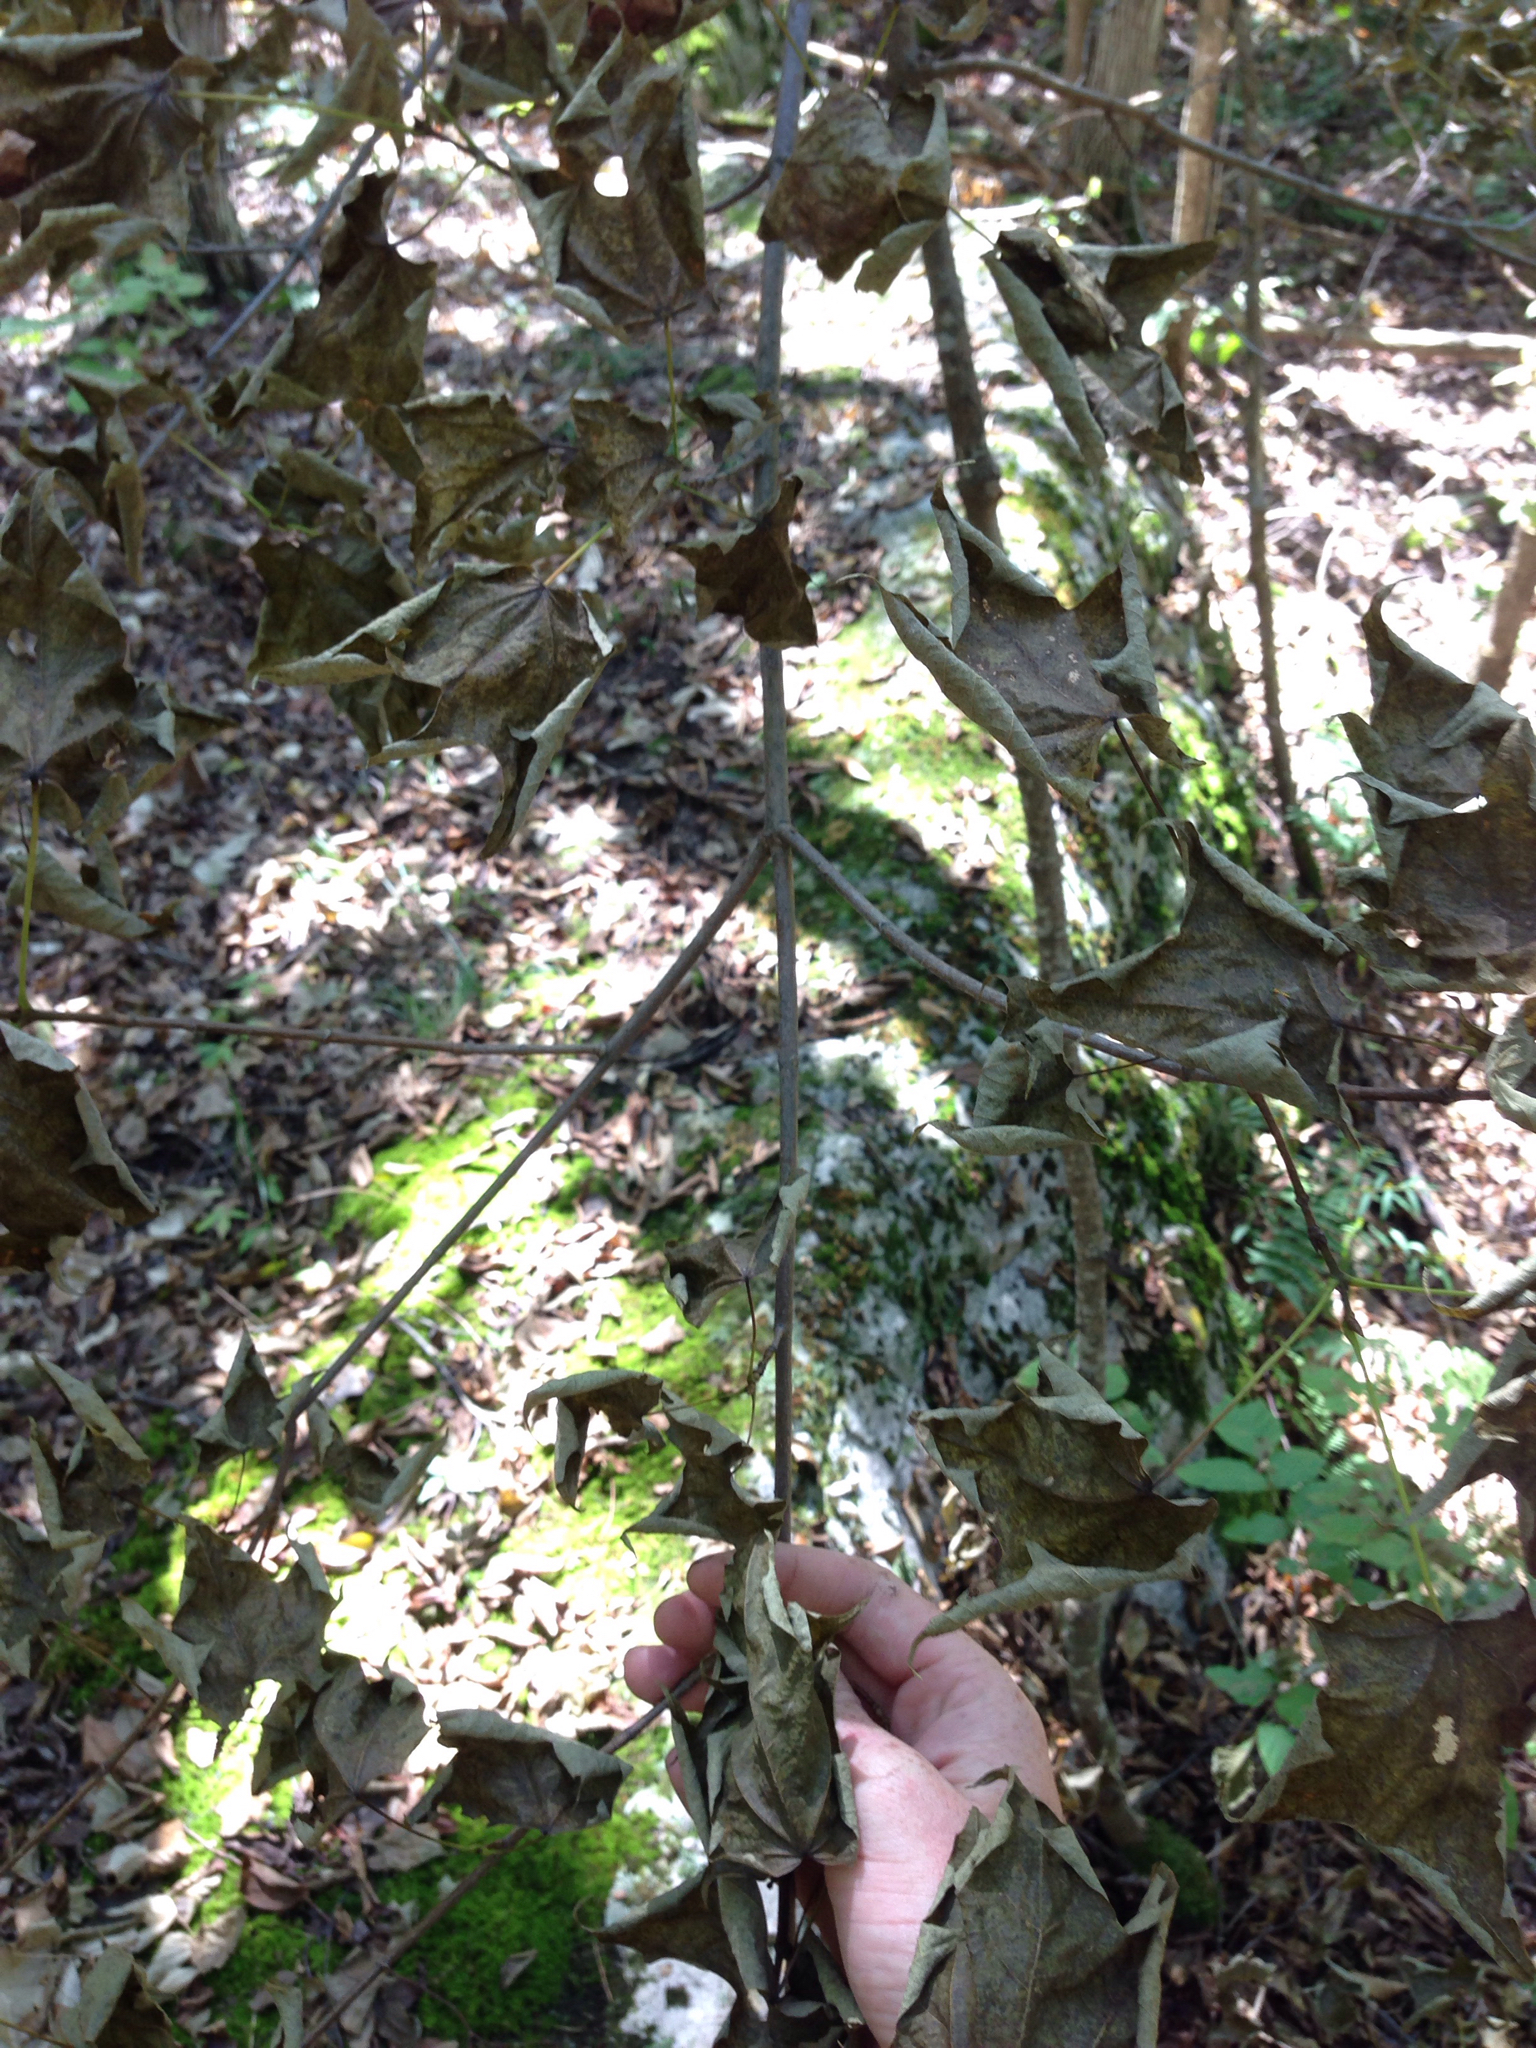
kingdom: Plantae
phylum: Tracheophyta
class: Magnoliopsida
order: Sapindales
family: Sapindaceae
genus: Acer
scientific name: Acer saccharum
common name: Sugar maple
